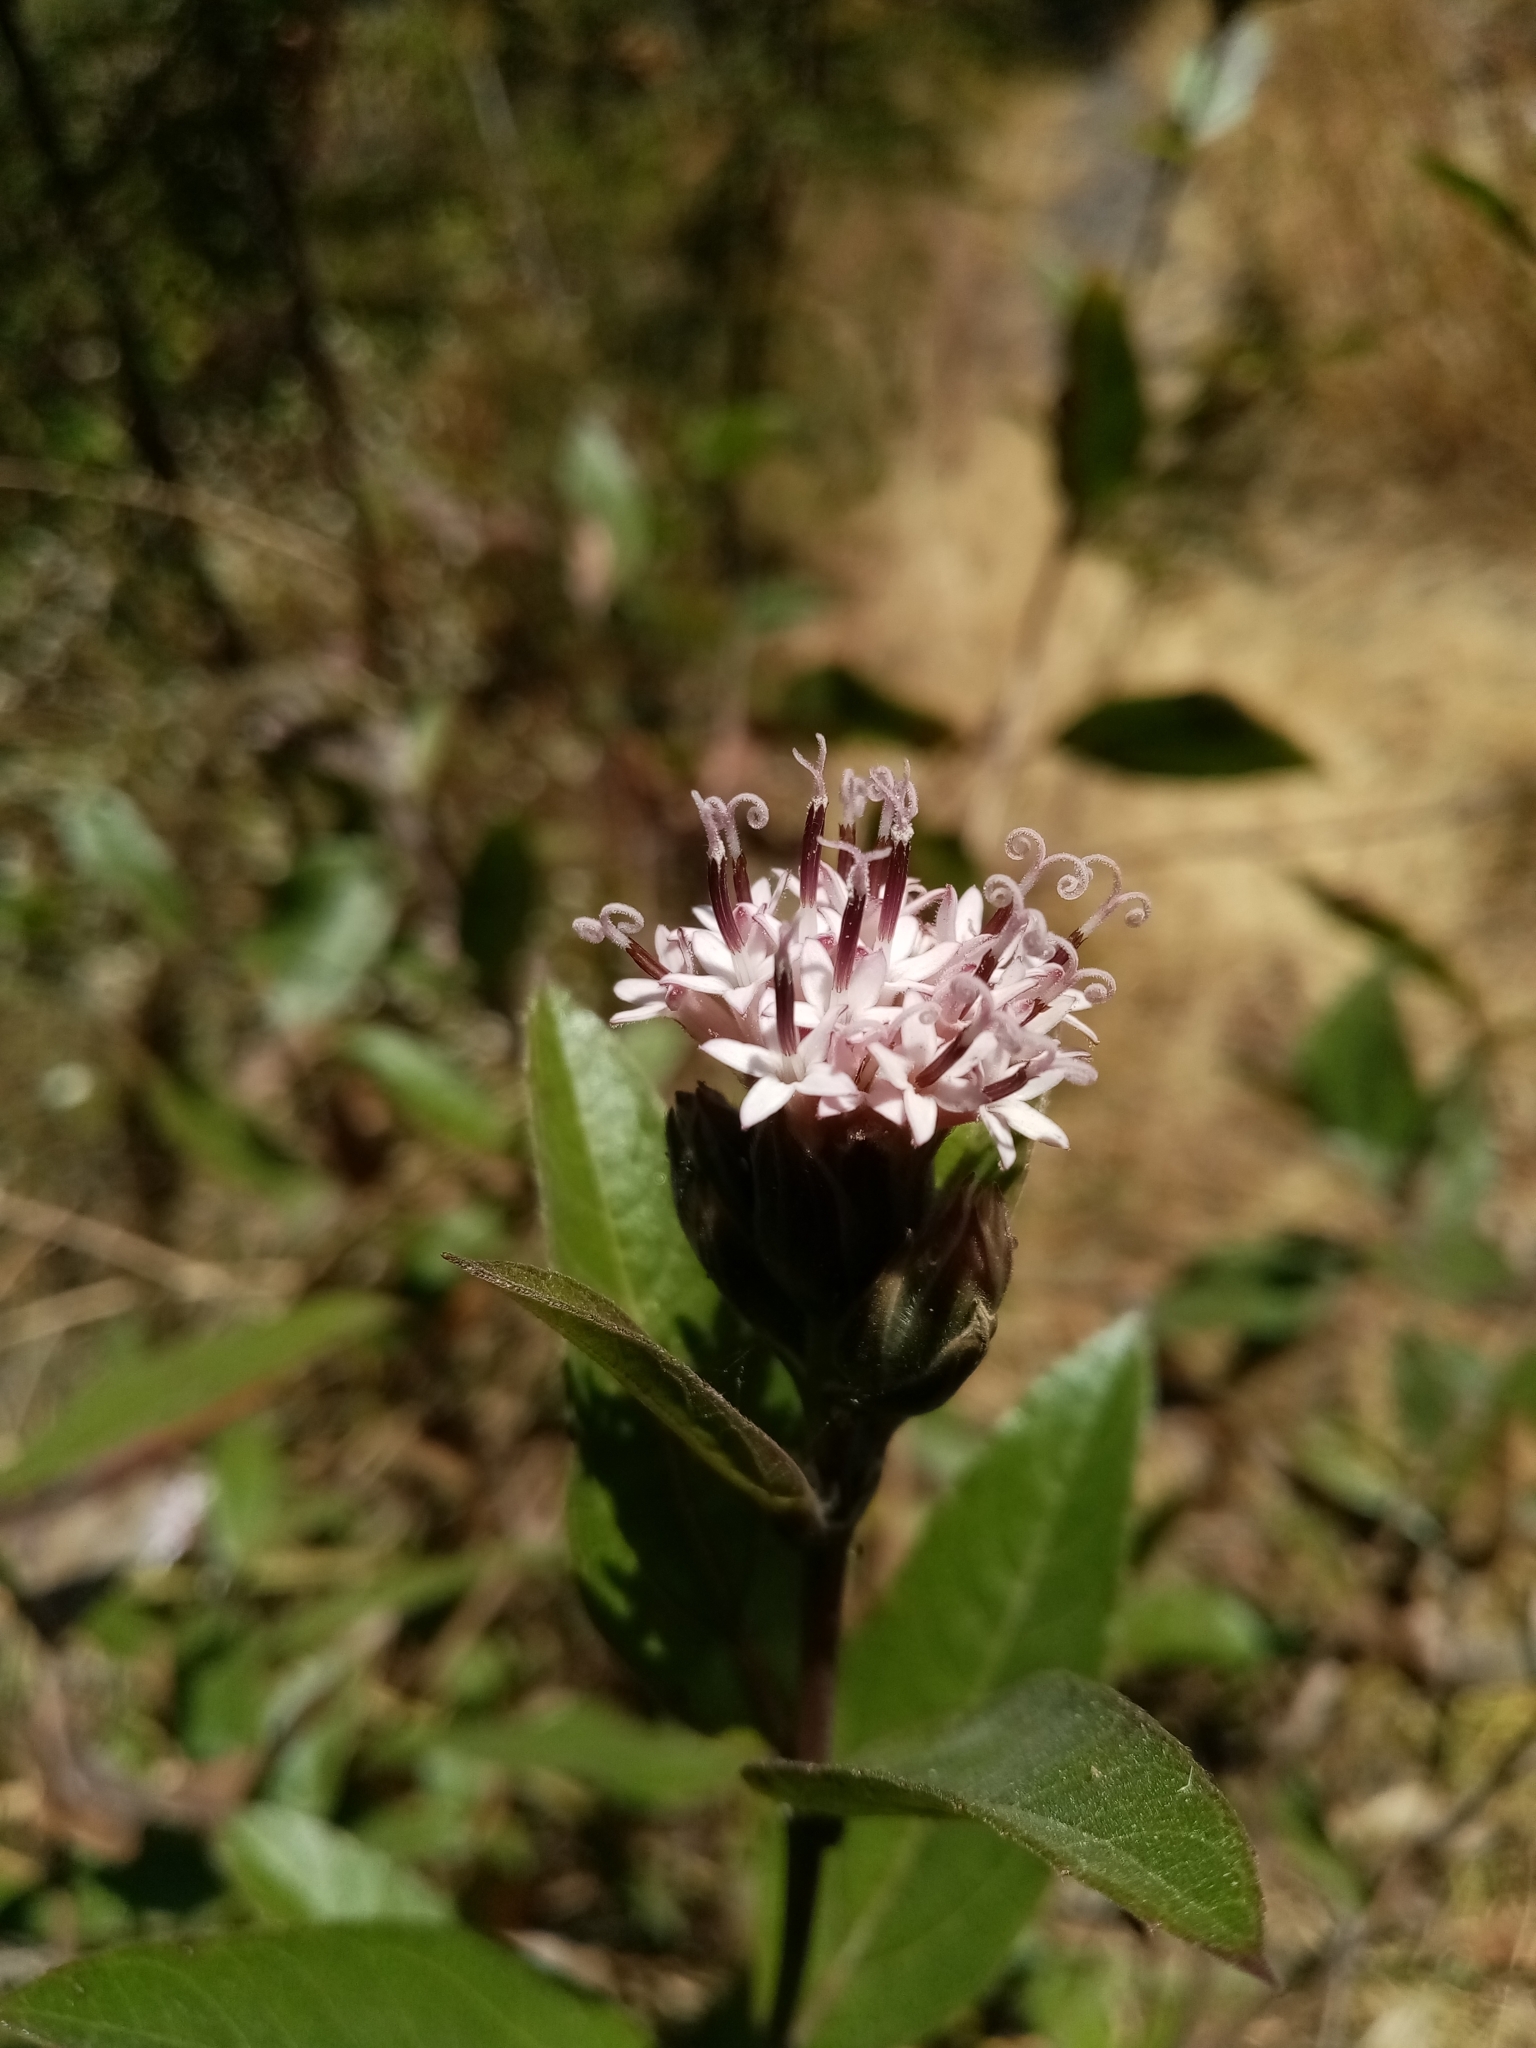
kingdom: Plantae
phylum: Tracheophyta
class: Magnoliopsida
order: Asterales
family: Asteraceae
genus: Lagascea
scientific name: Lagascea rigida
